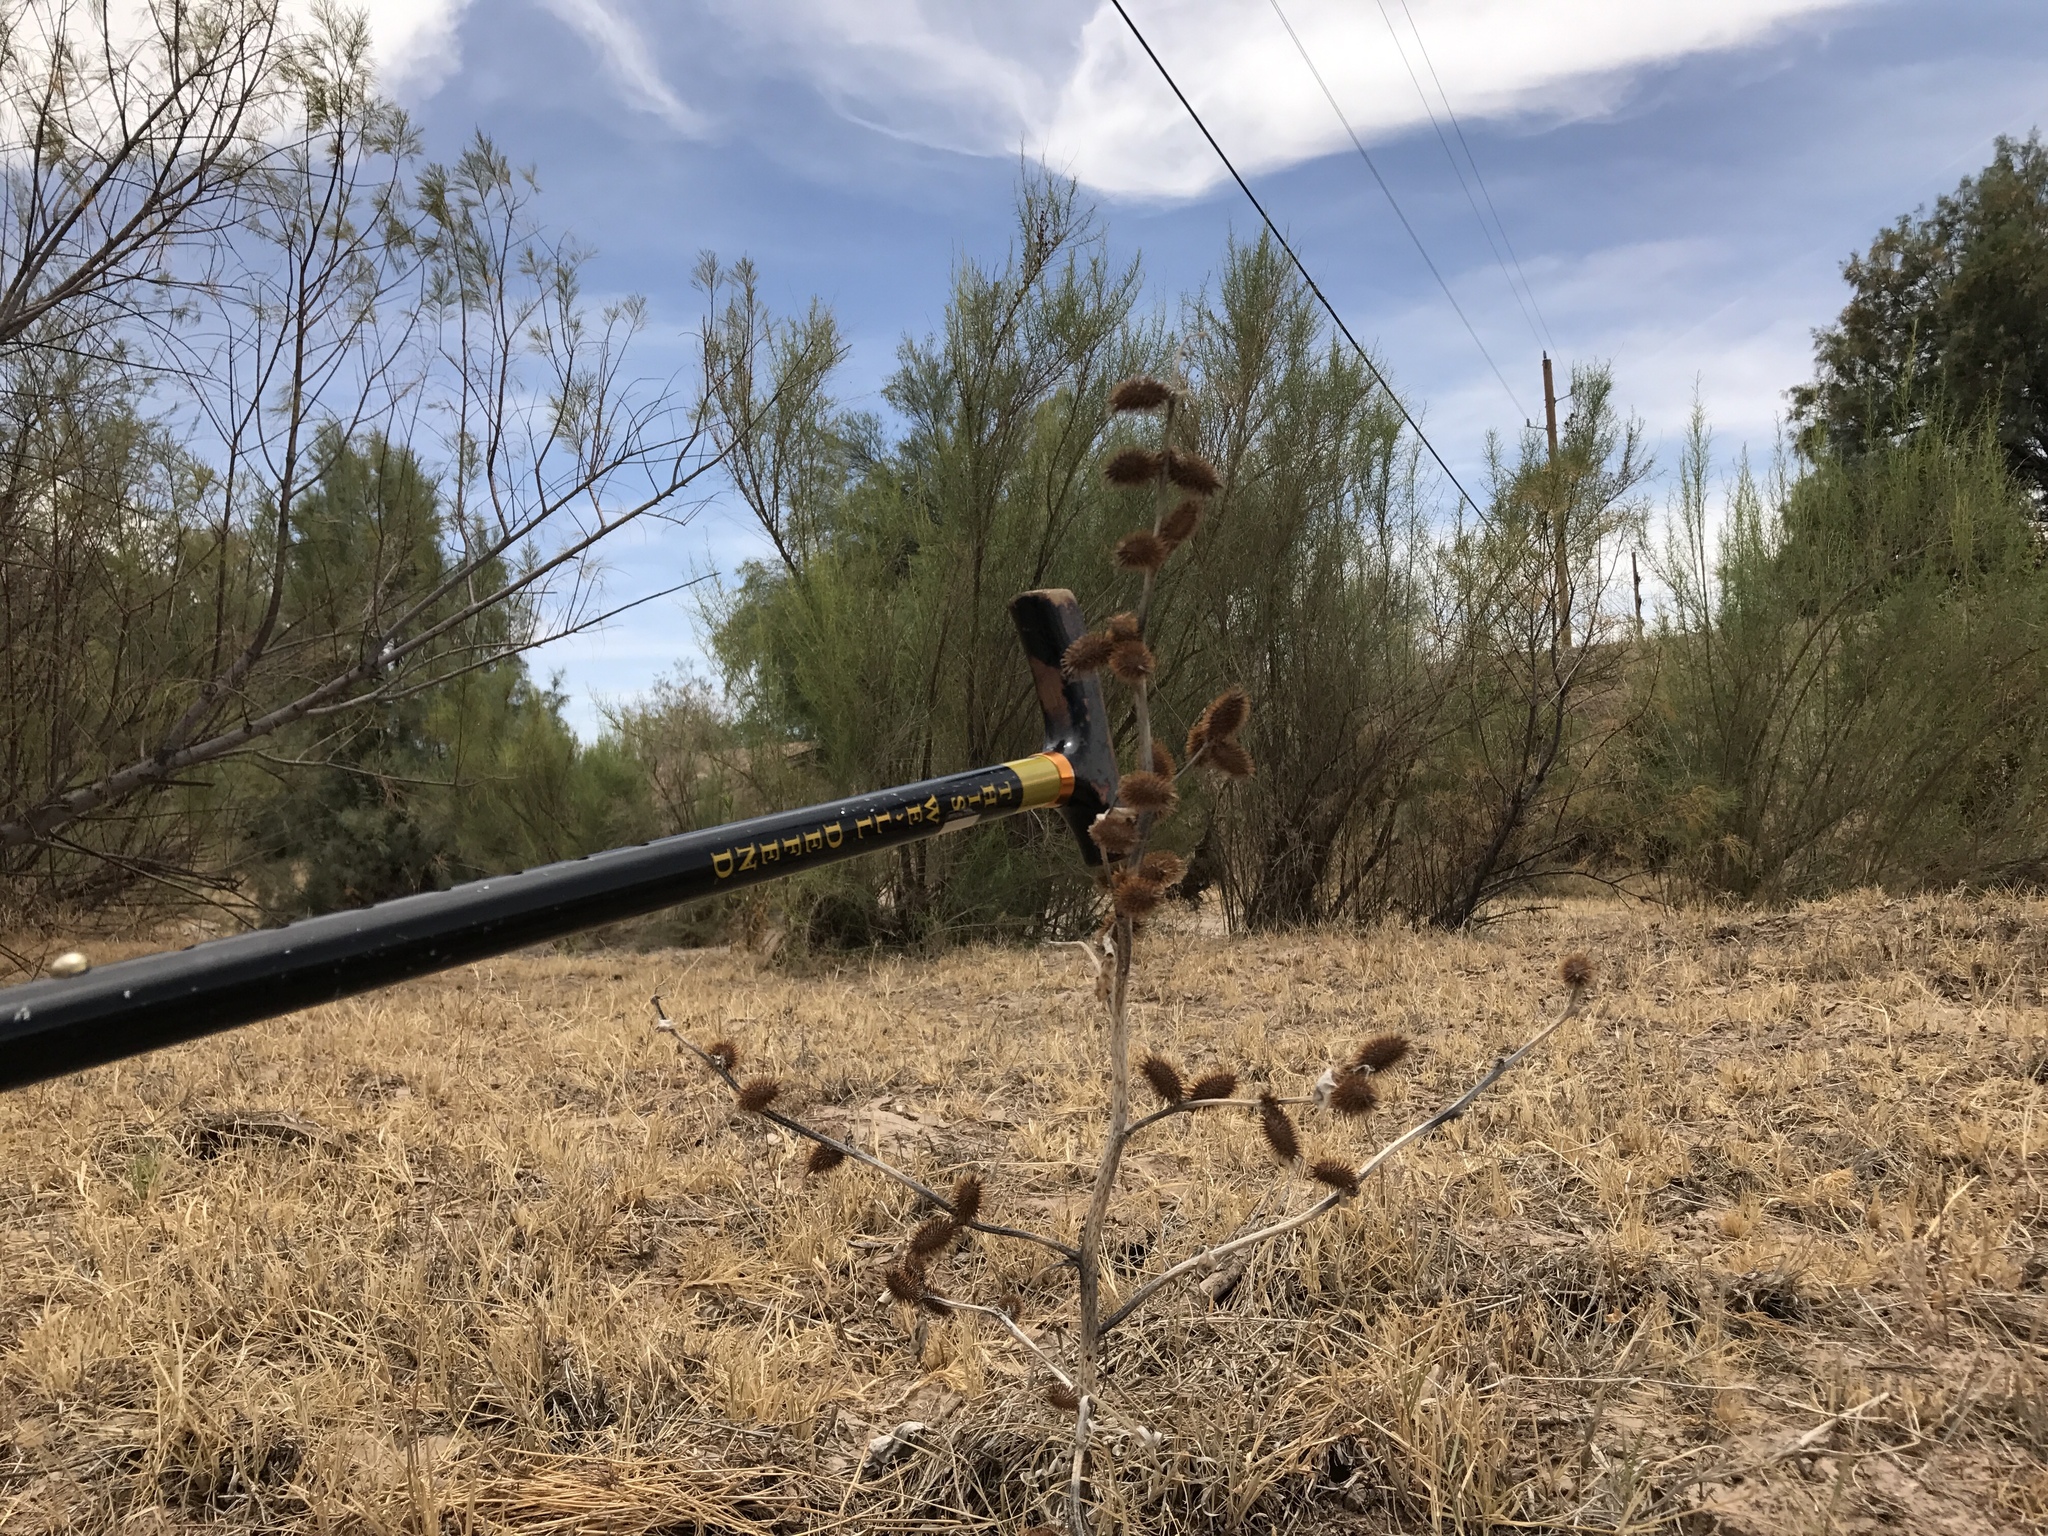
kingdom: Plantae
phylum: Tracheophyta
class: Magnoliopsida
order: Asterales
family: Asteraceae
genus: Xanthium
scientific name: Xanthium strumarium
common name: Rough cocklebur
